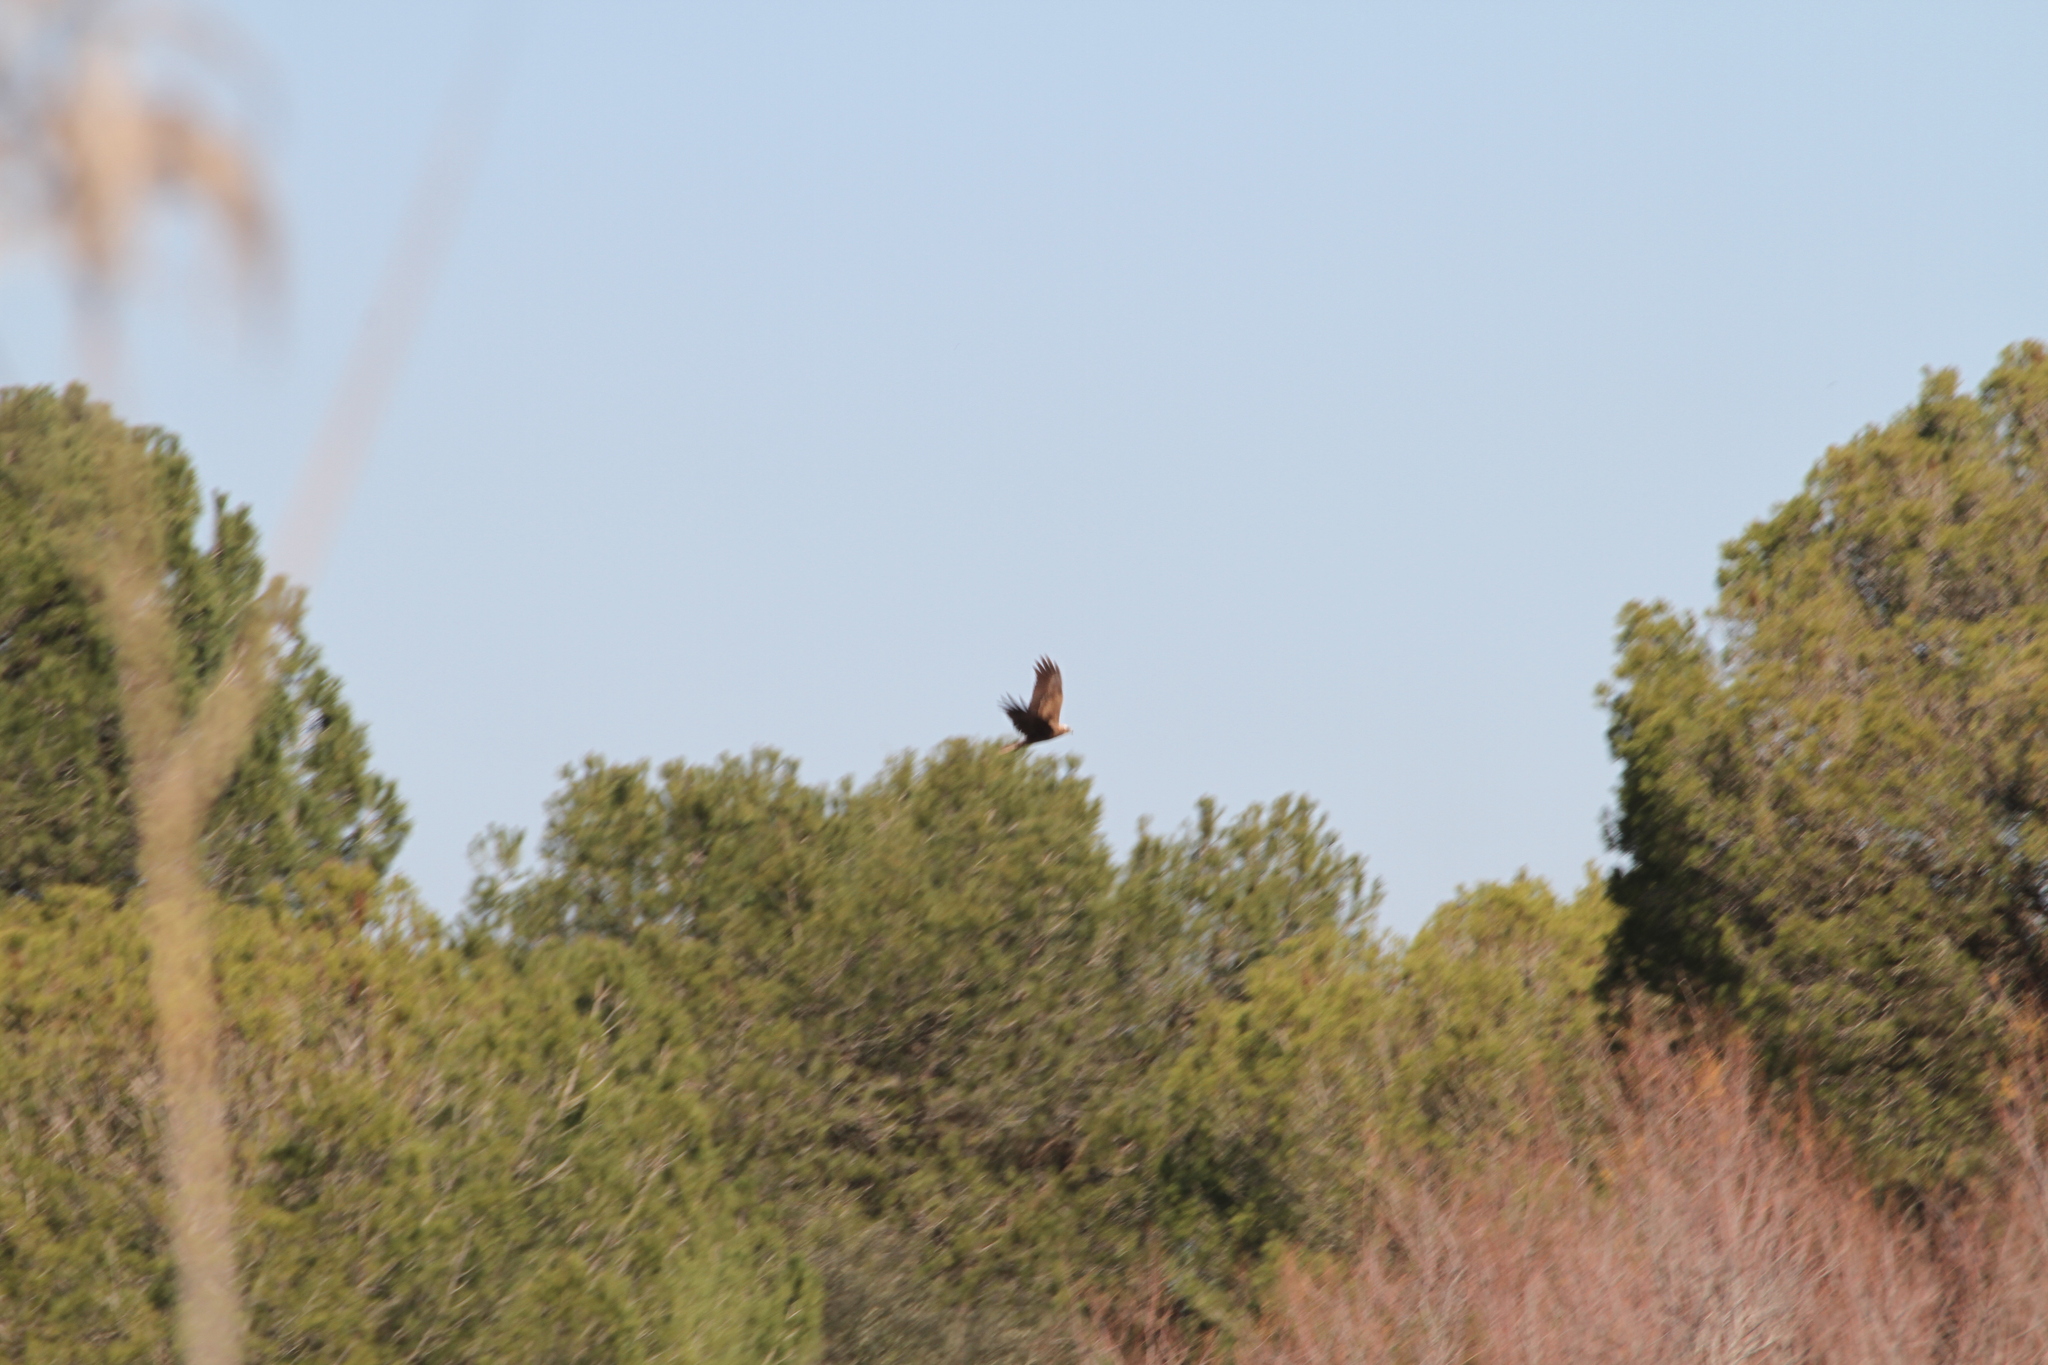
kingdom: Animalia
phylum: Chordata
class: Aves
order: Accipitriformes
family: Accipitridae
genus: Circus
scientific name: Circus aeruginosus
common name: Western marsh harrier
